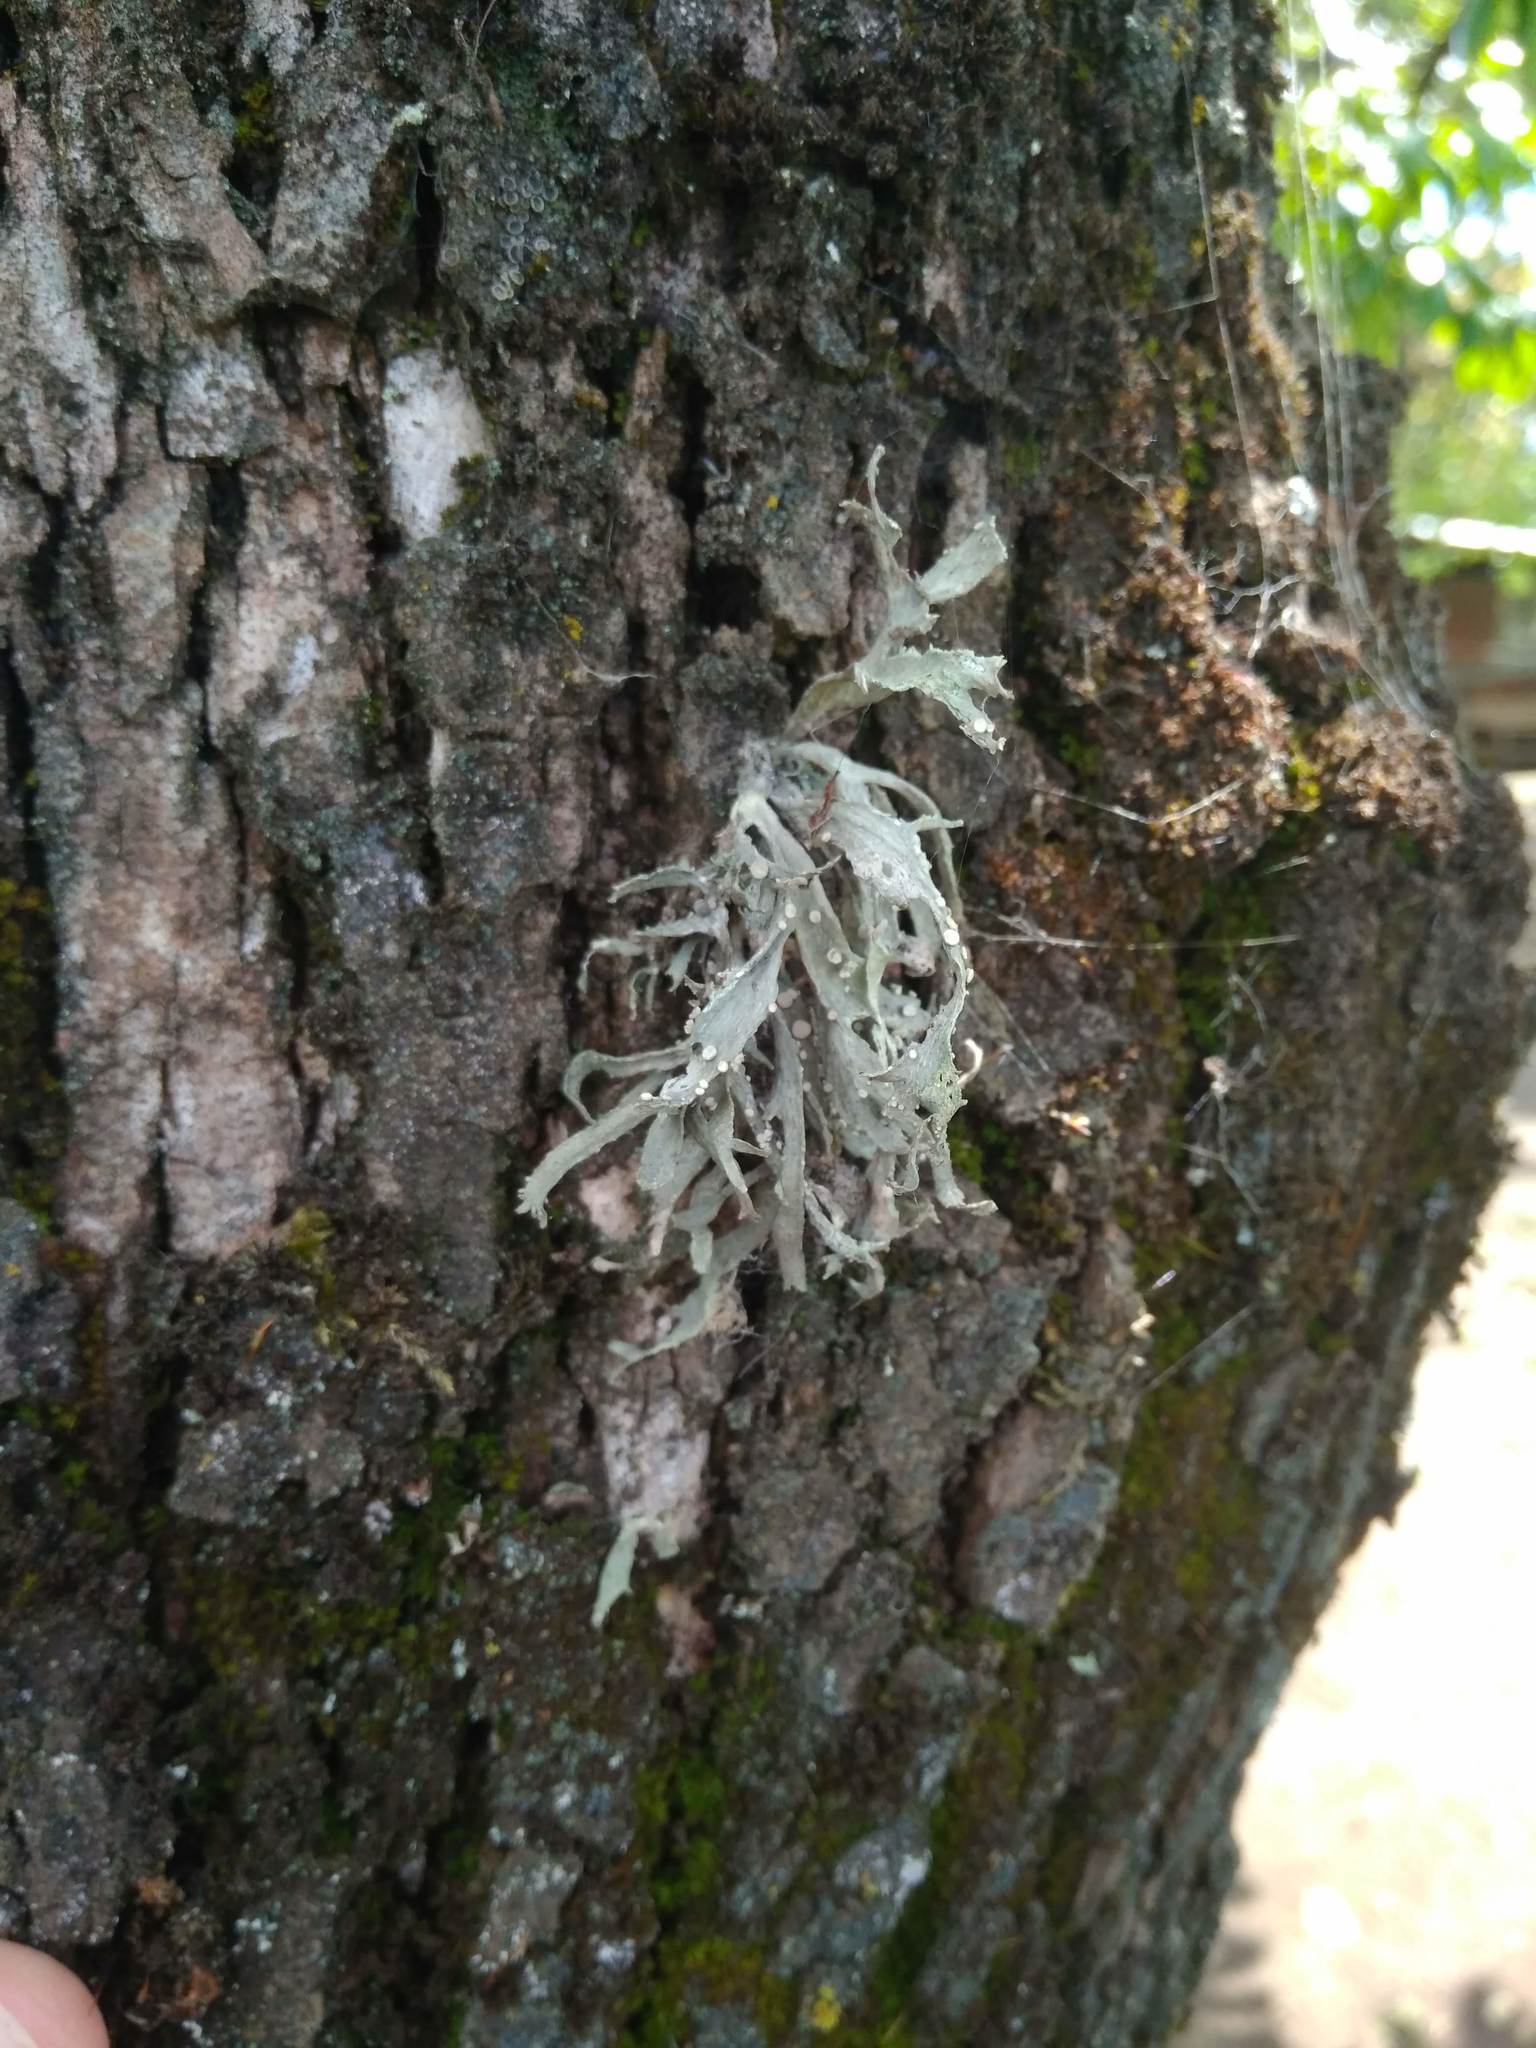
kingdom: Fungi
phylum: Ascomycota
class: Lecanoromycetes
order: Lecanorales
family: Ramalinaceae
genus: Ramalina
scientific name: Ramalina celastri
